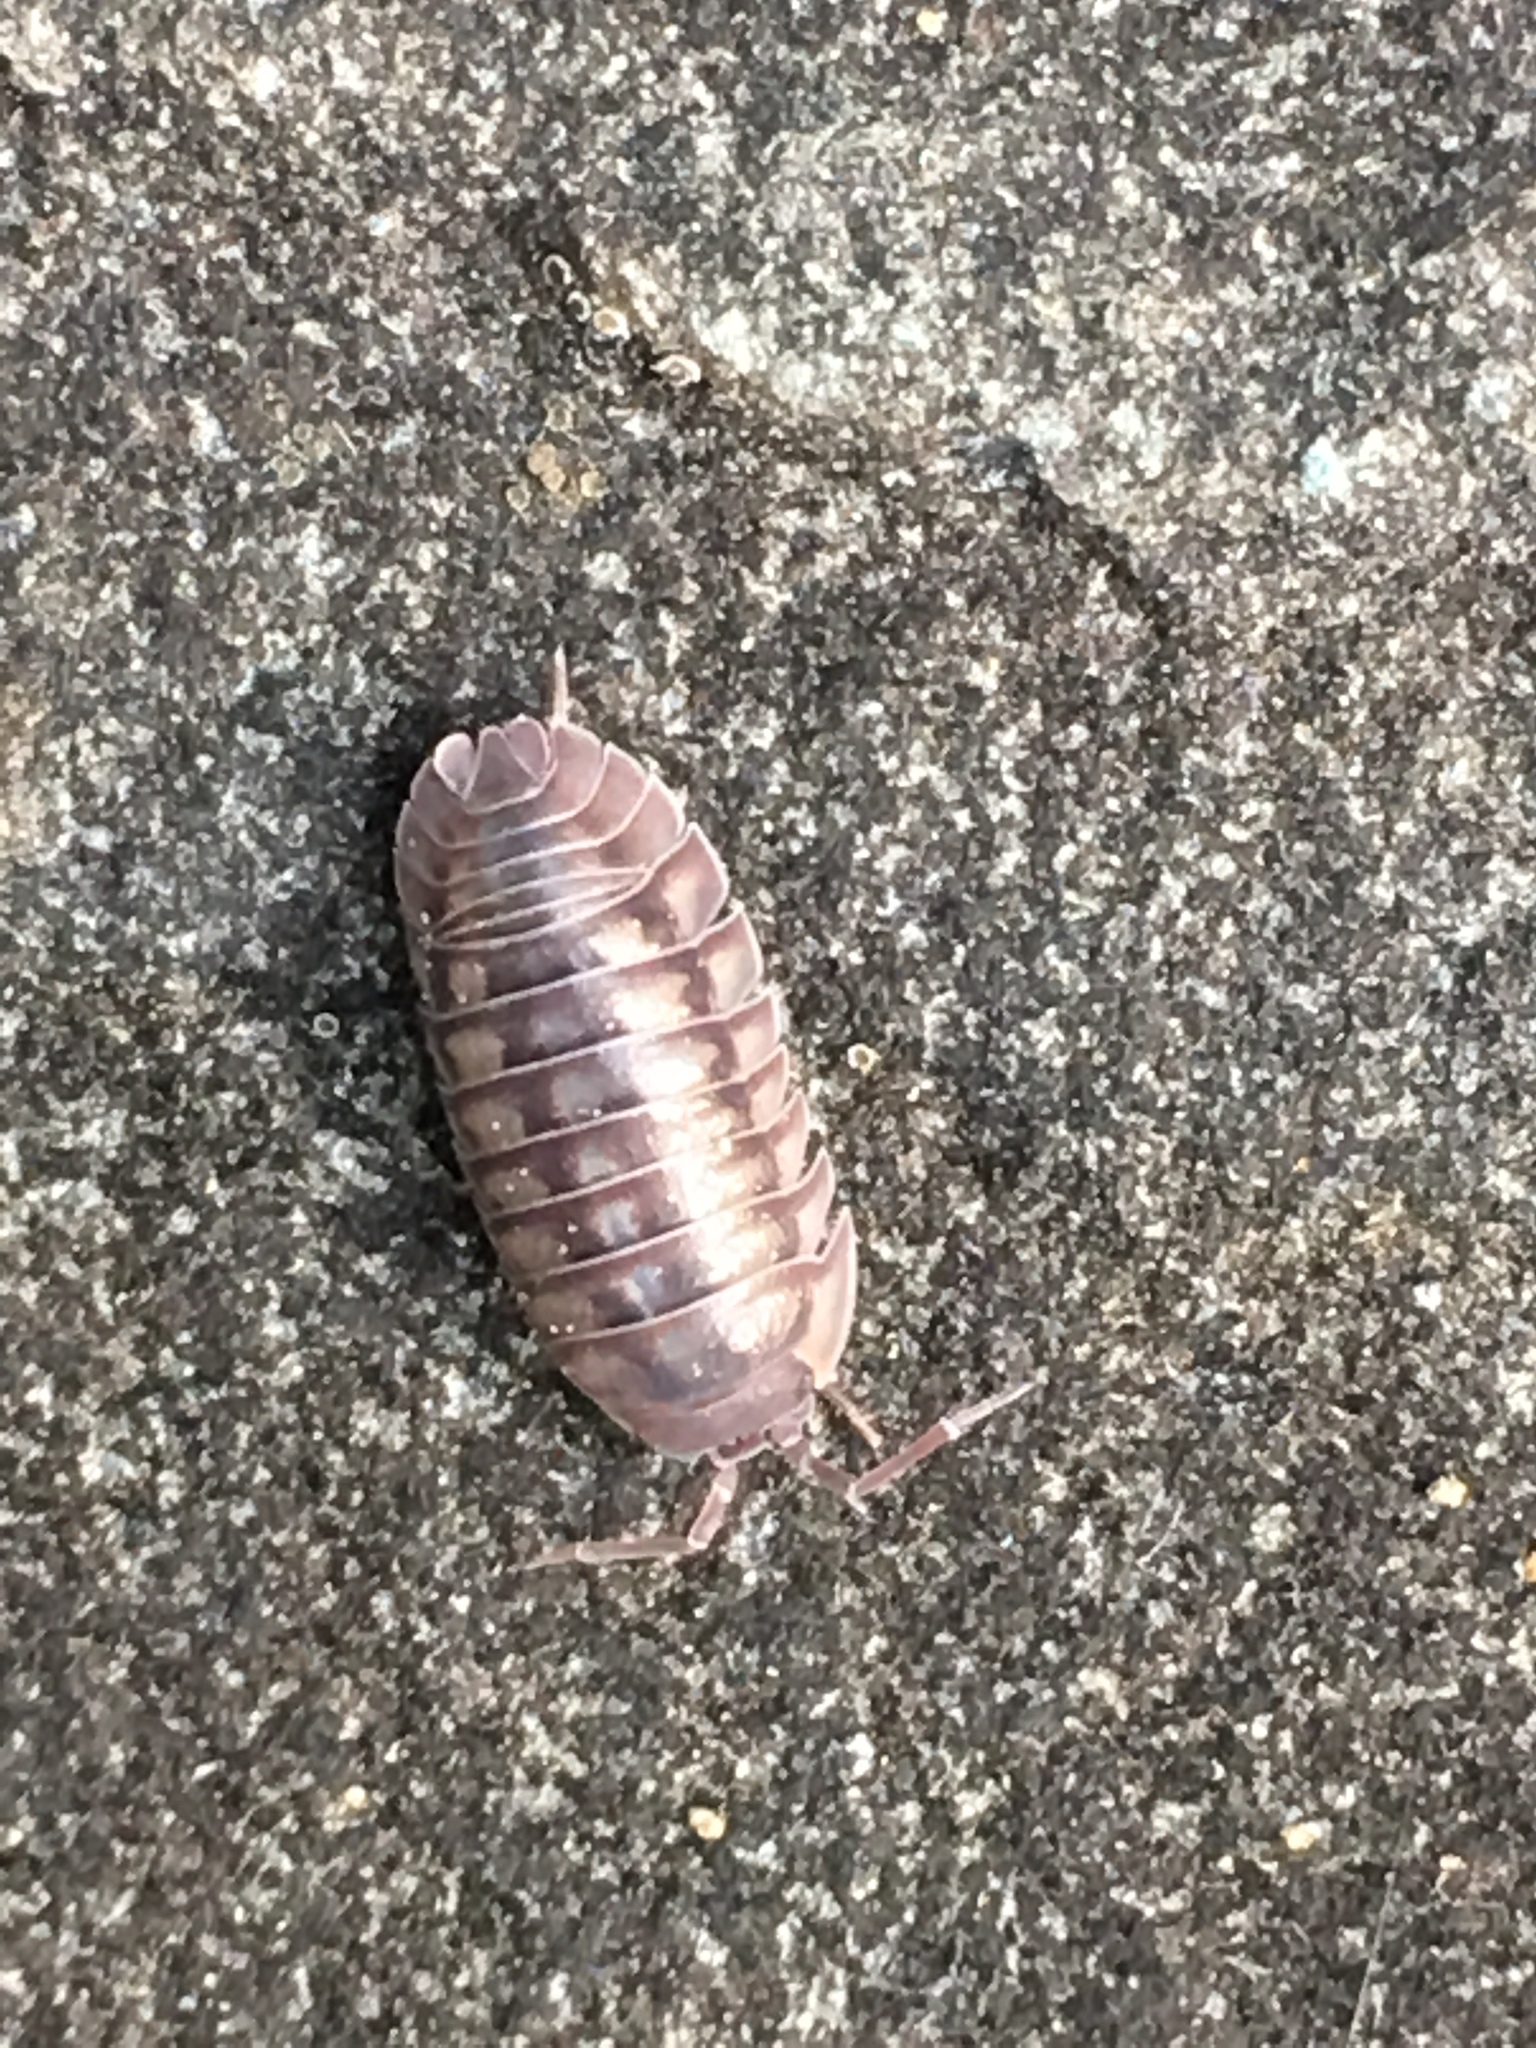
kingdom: Animalia
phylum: Arthropoda
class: Malacostraca
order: Isopoda
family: Armadillidiidae
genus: Armadillidium
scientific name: Armadillidium nasatum
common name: Isopod
